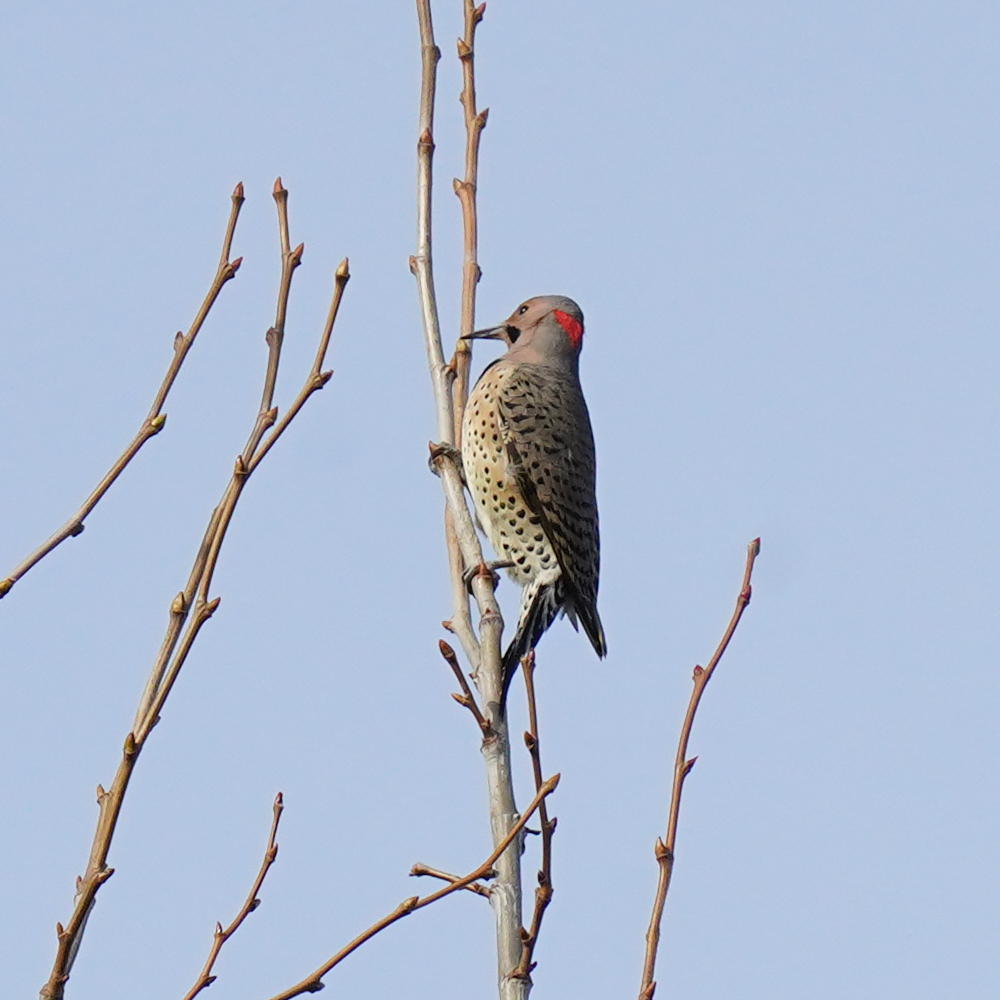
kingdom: Animalia
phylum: Chordata
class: Aves
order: Piciformes
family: Picidae
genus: Colaptes
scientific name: Colaptes auratus
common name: Northern flicker
